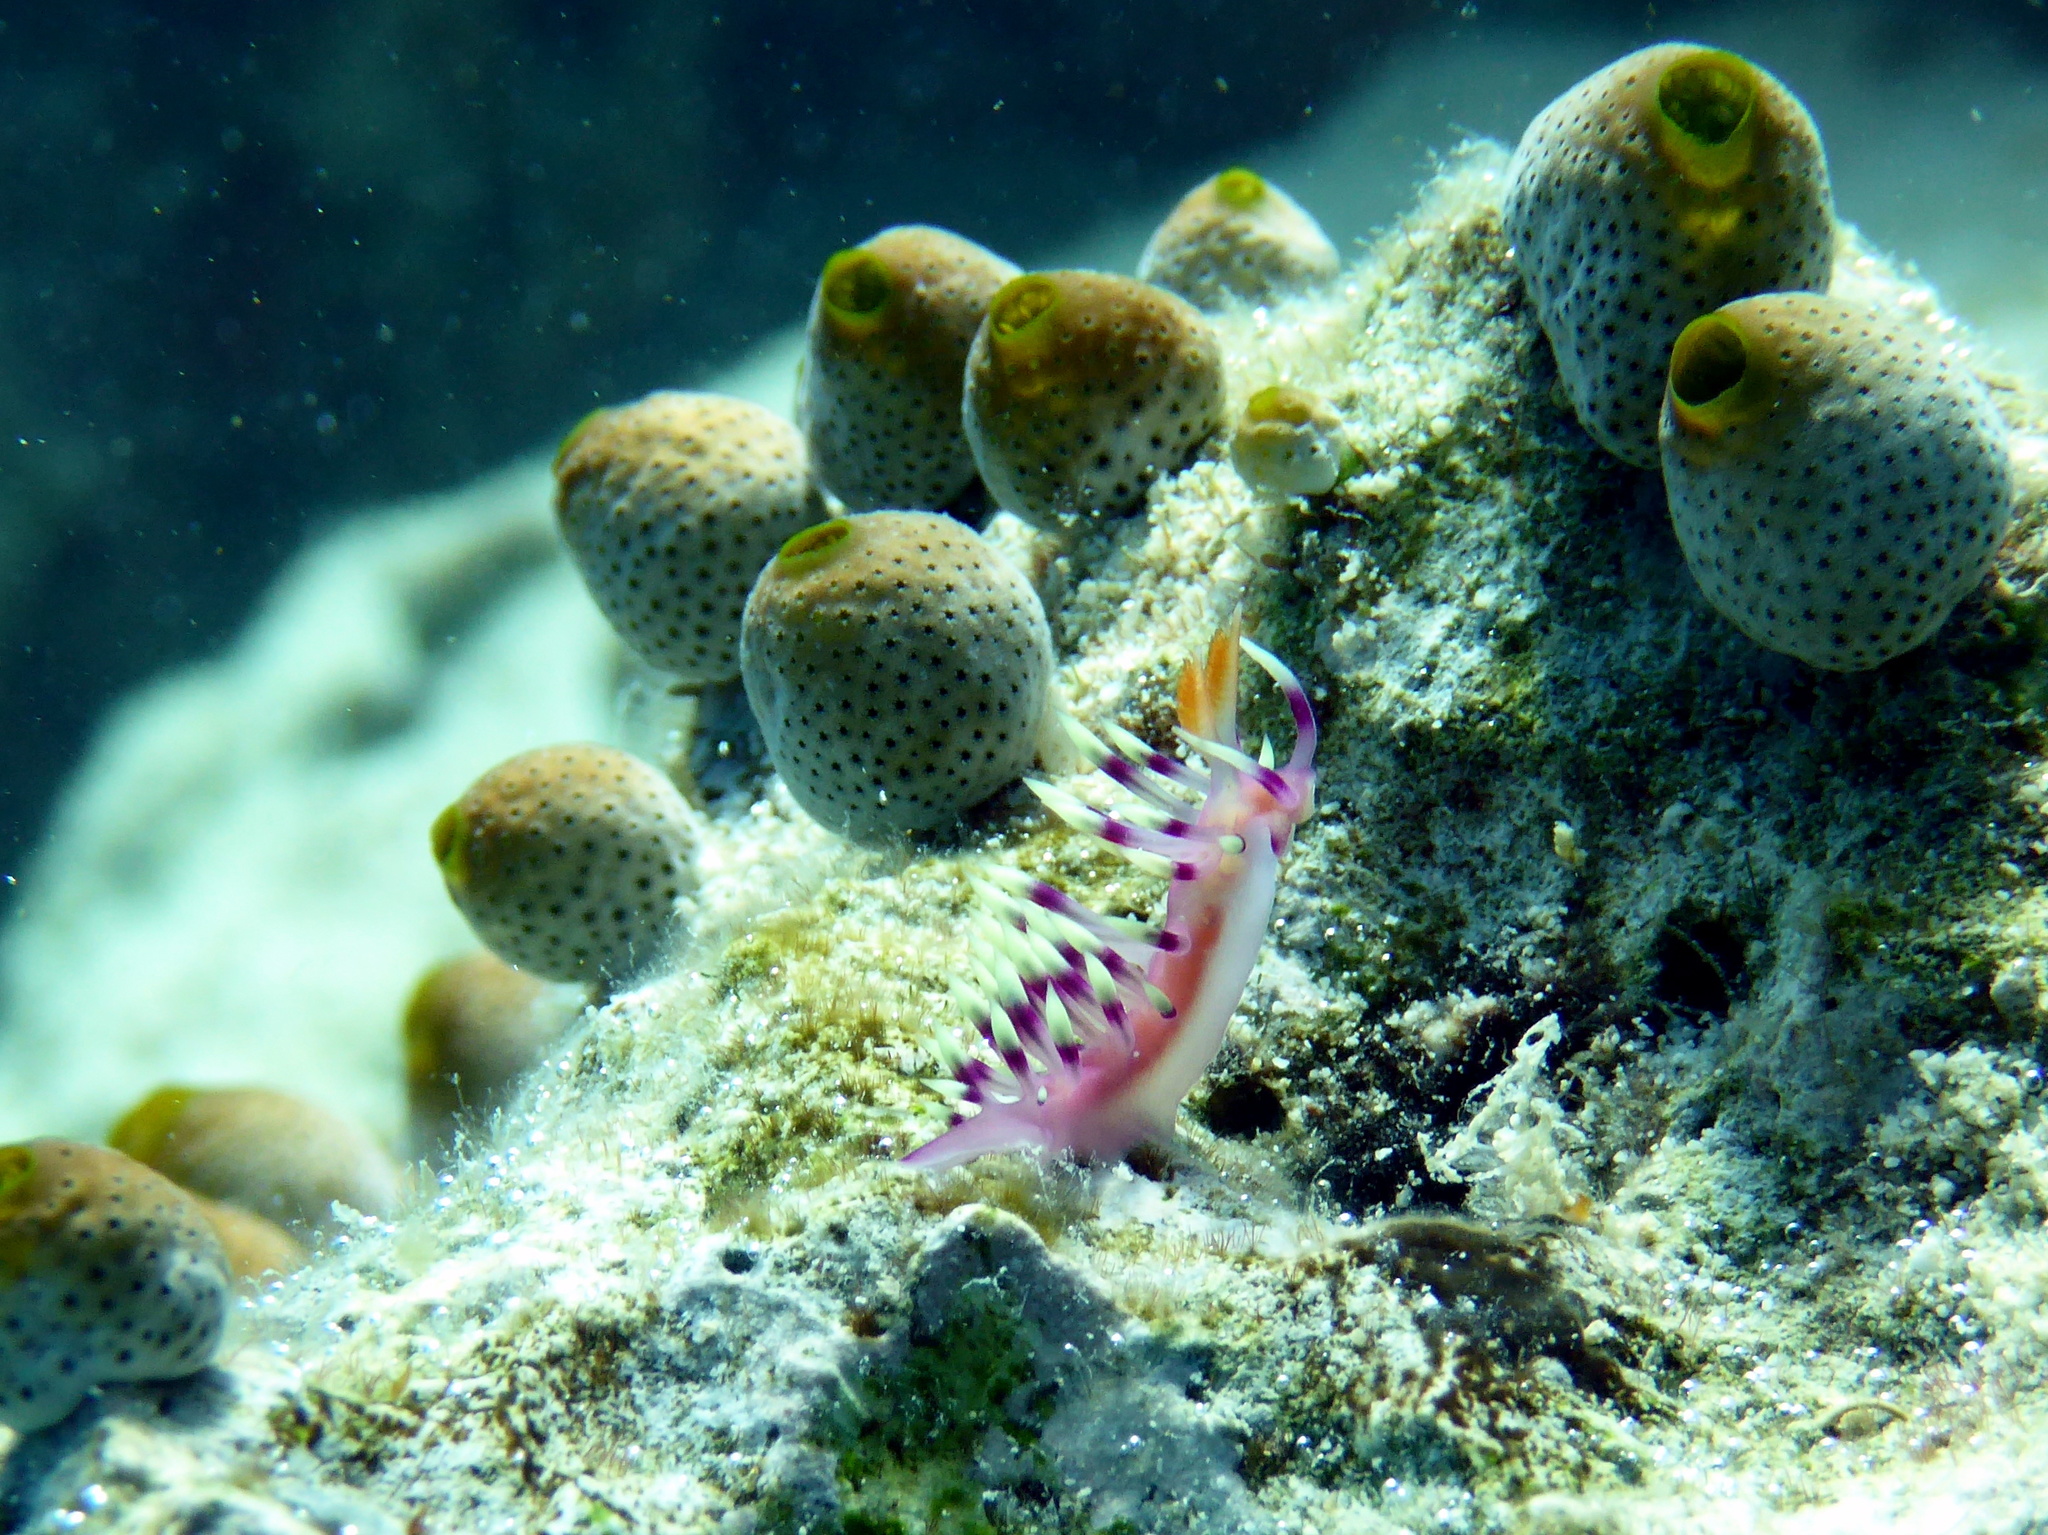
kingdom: Animalia
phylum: Mollusca
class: Gastropoda
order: Nudibranchia
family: Flabellinidae
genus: Coryphellina
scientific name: Coryphellina exoptata
